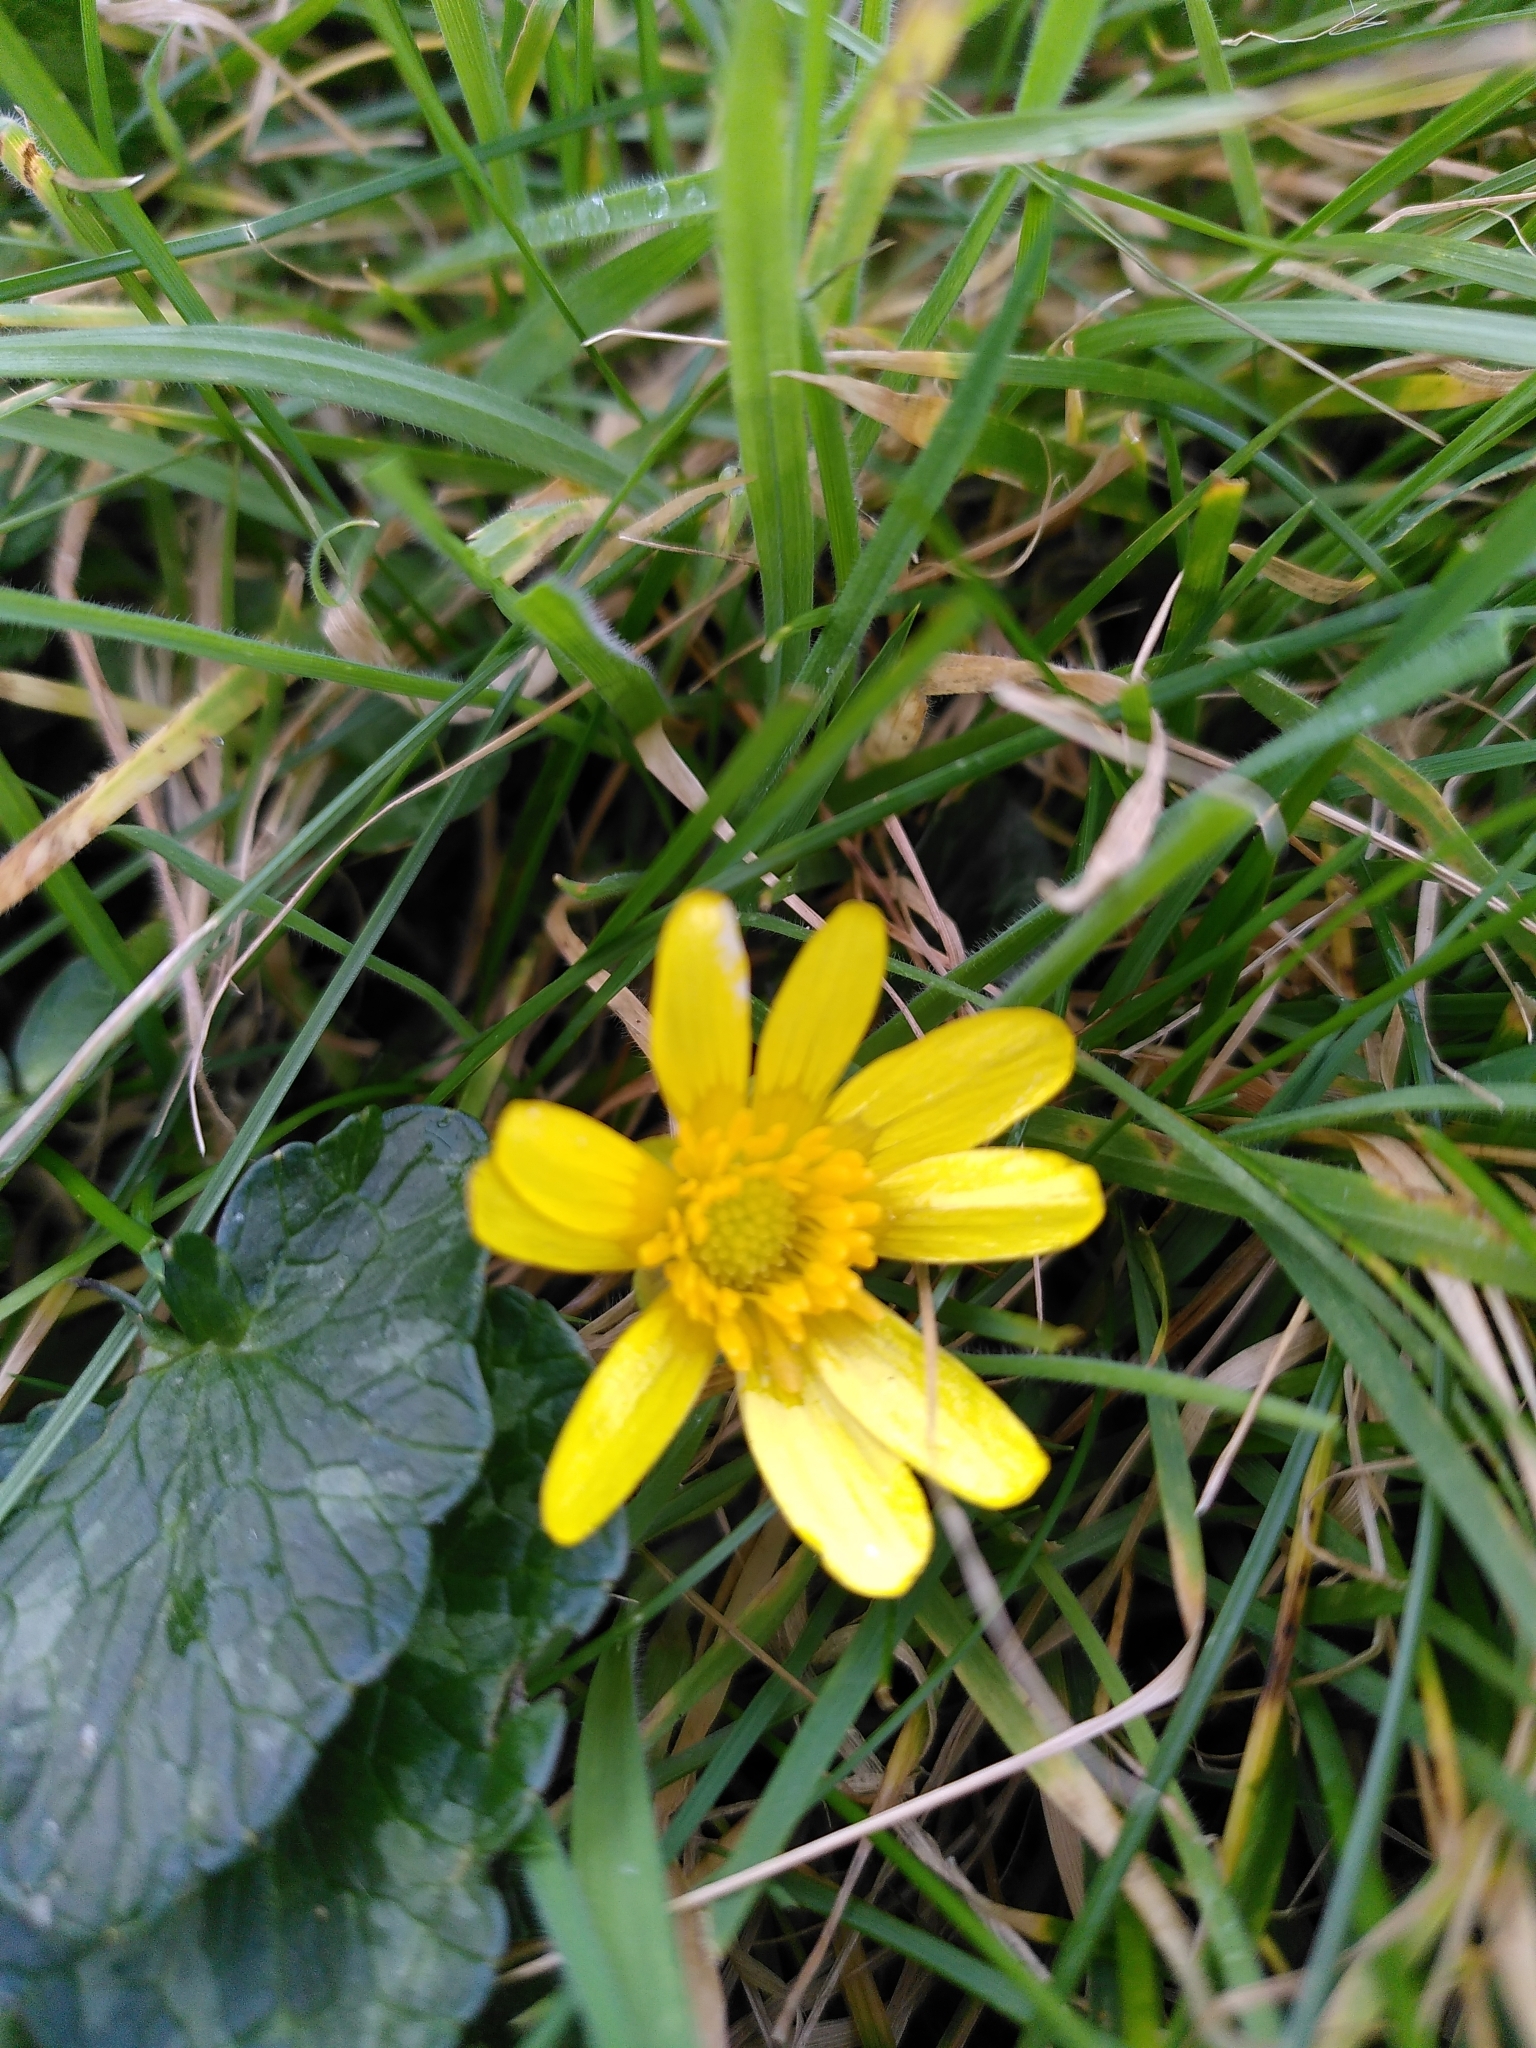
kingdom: Plantae
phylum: Tracheophyta
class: Magnoliopsida
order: Ranunculales
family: Ranunculaceae
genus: Ficaria
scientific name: Ficaria verna
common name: Lesser celandine
